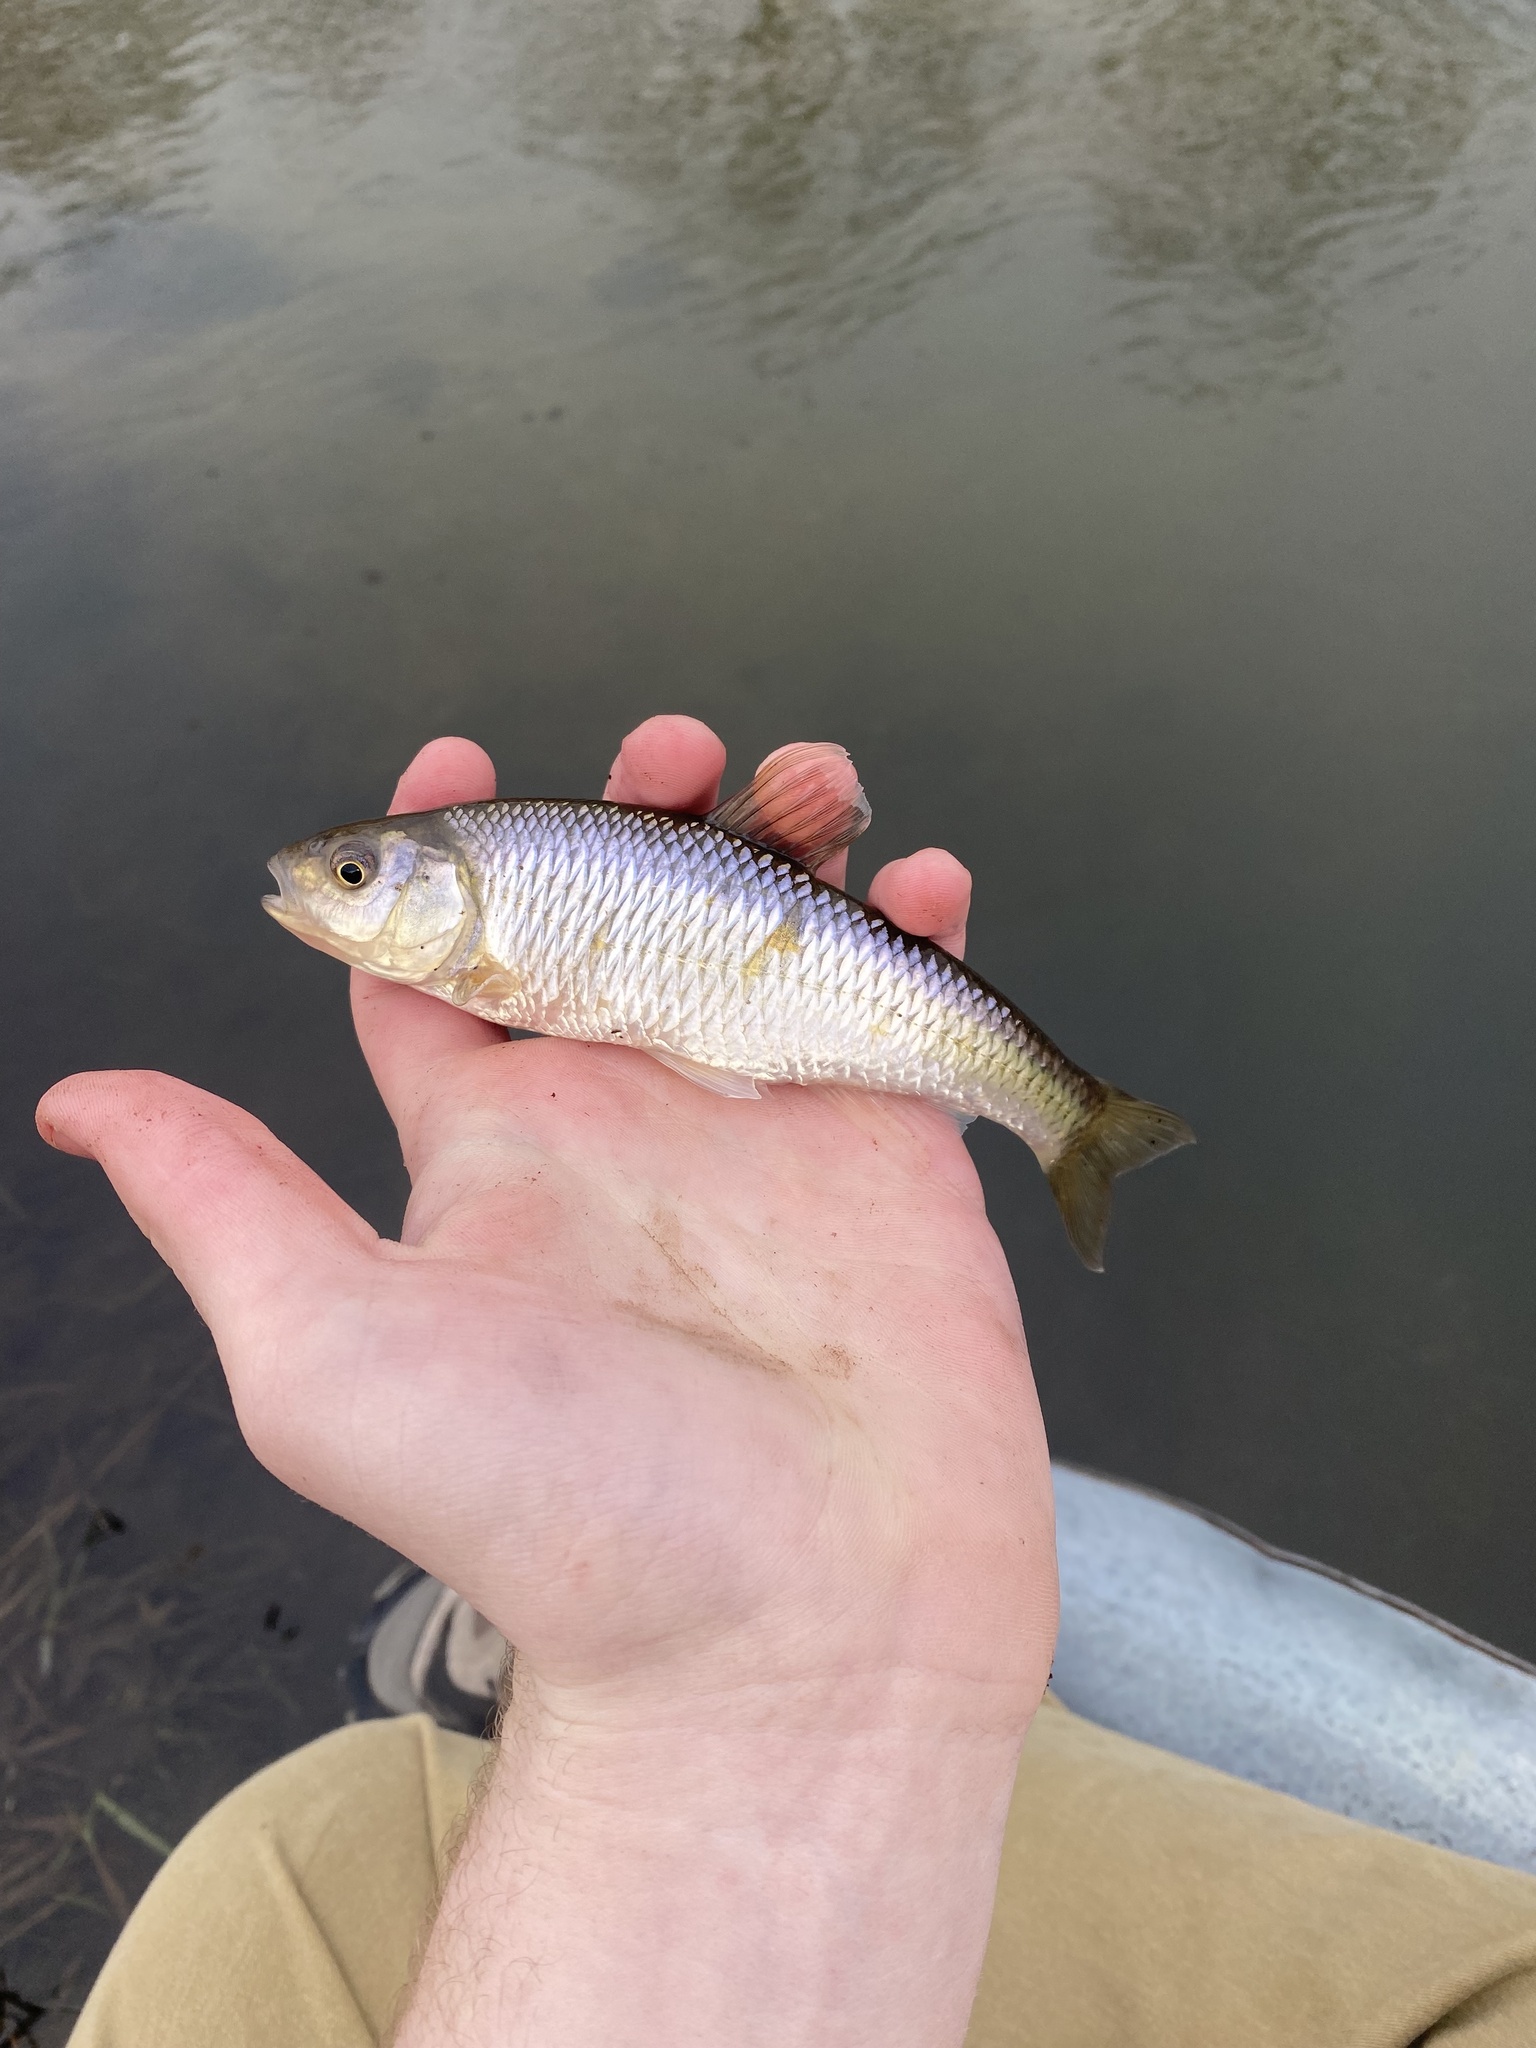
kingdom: Animalia
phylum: Chordata
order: Cypriniformes
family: Cyprinidae
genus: Luxilus
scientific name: Luxilus cornutus
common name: Common shiner
